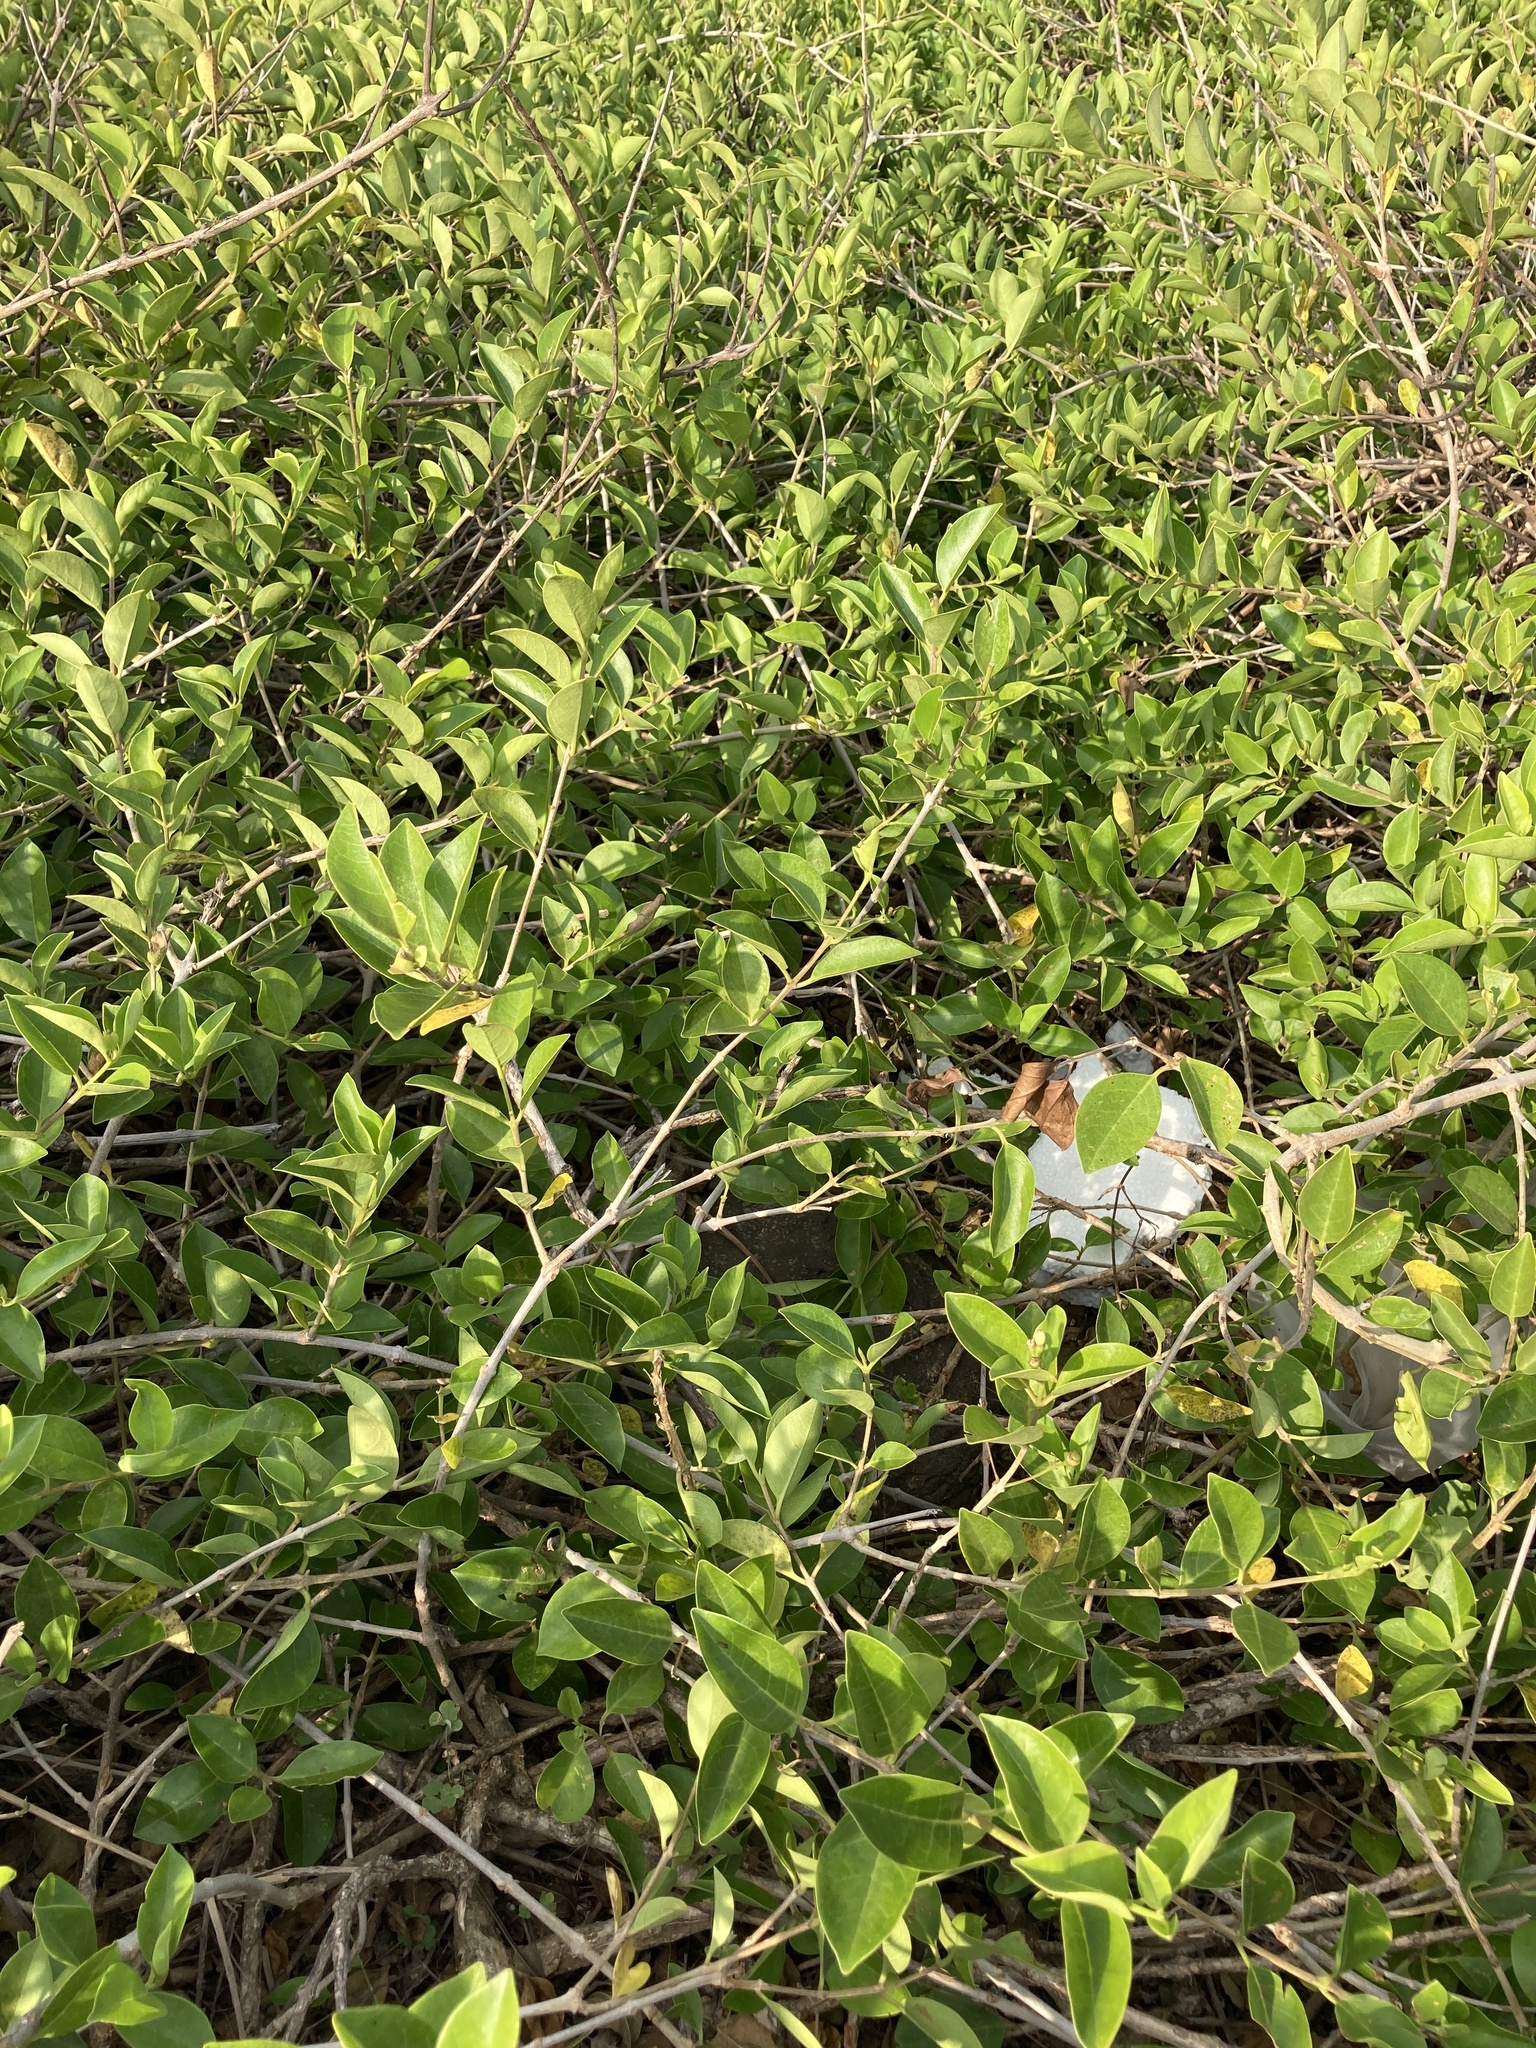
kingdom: Plantae
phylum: Tracheophyta
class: Magnoliopsida
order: Lamiales
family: Lamiaceae
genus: Volkameria
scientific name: Volkameria inermis
